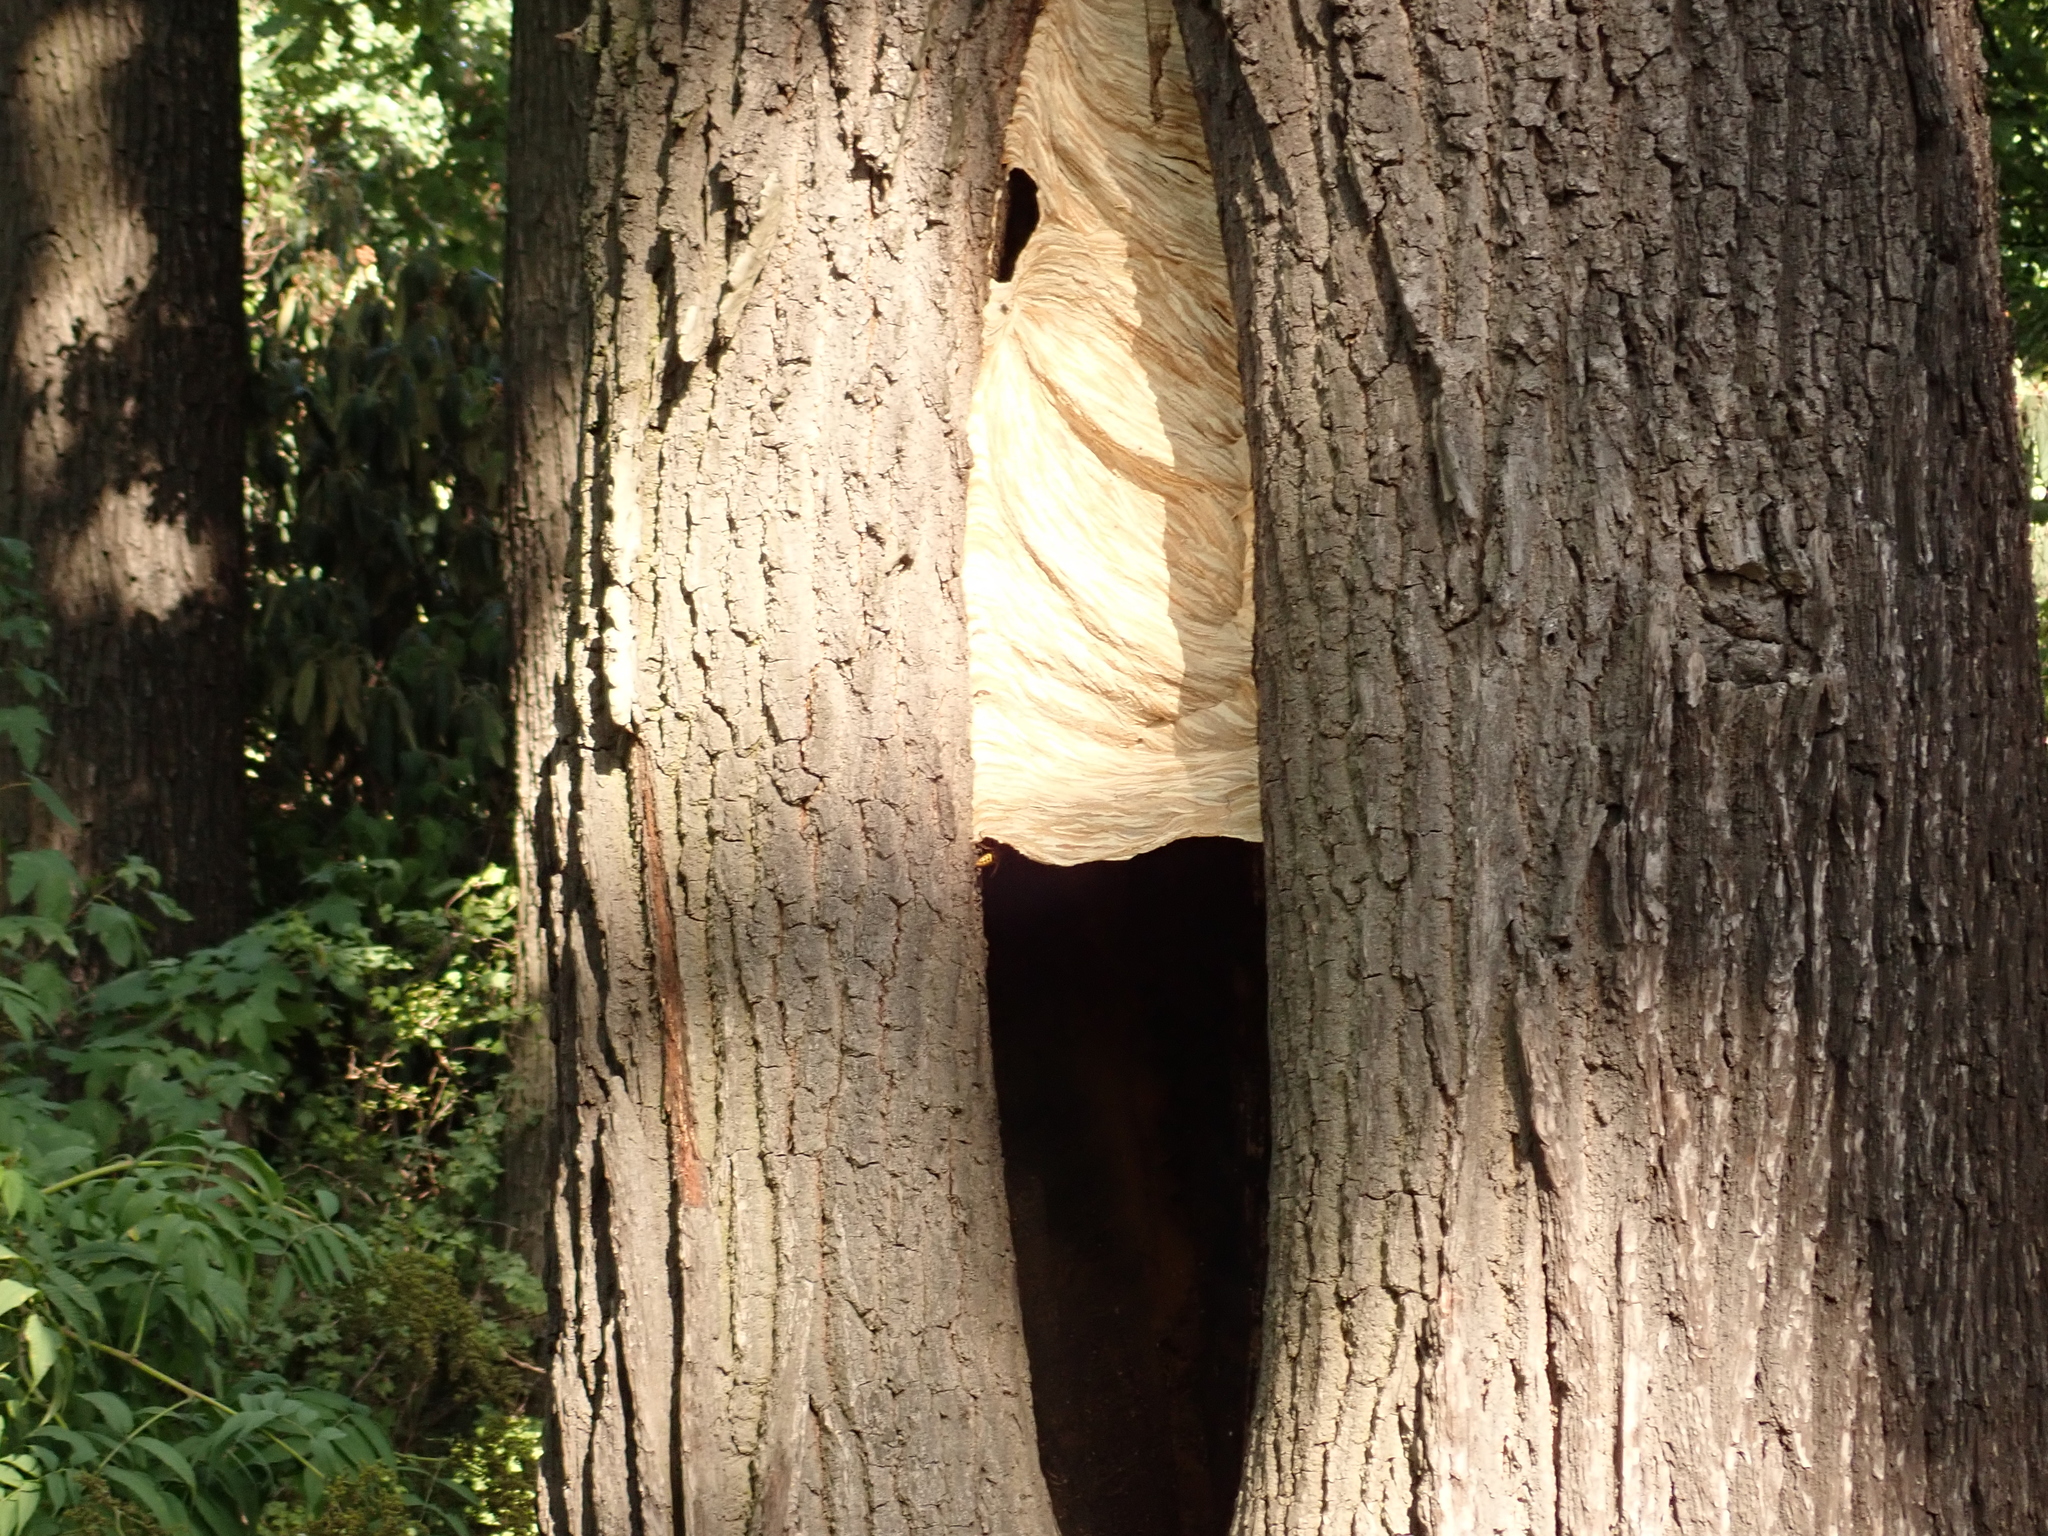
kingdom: Animalia
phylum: Arthropoda
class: Insecta
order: Hymenoptera
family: Vespidae
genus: Vespa
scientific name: Vespa crabro
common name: Hornet
